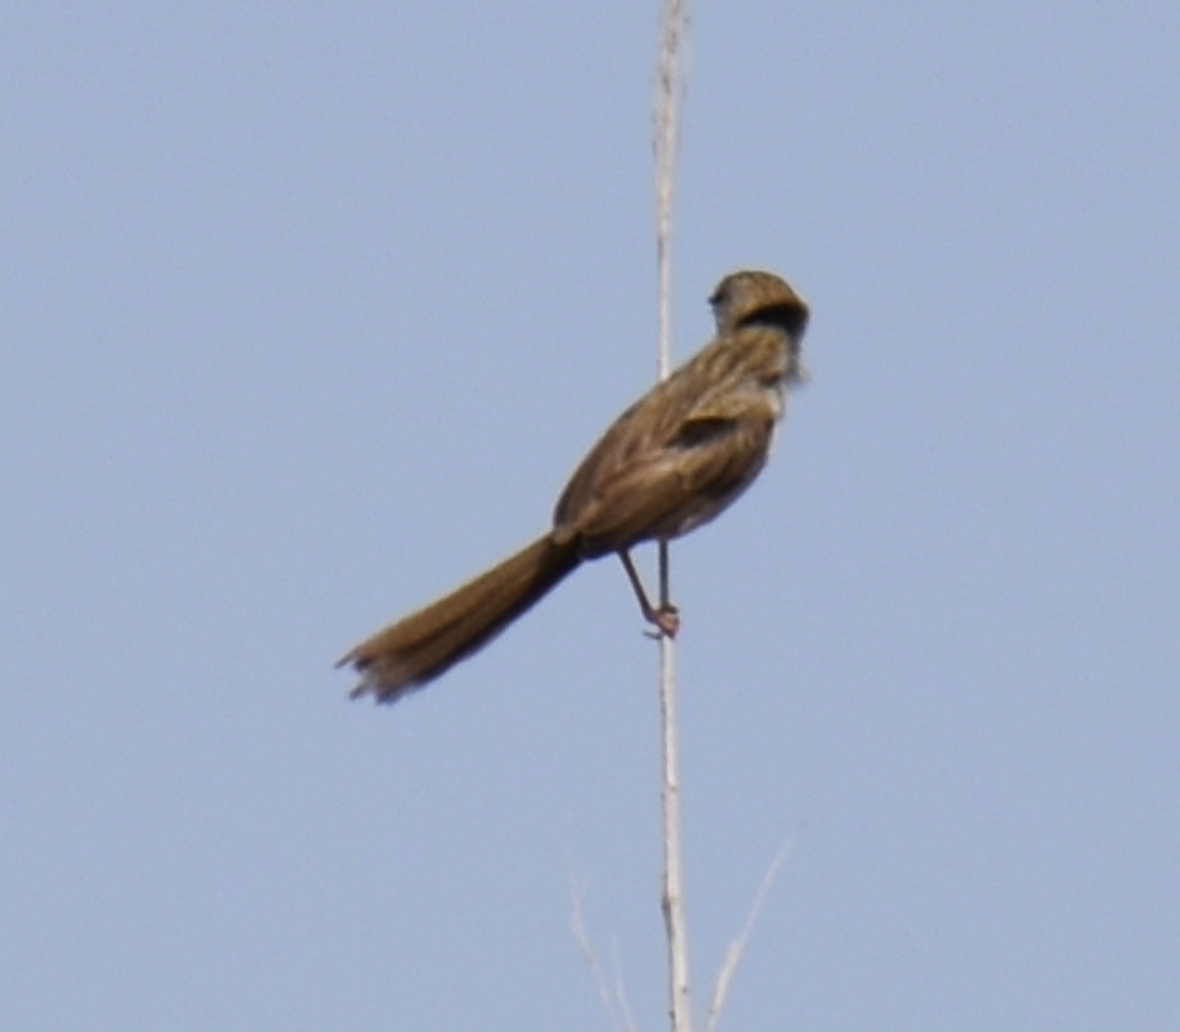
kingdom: Animalia
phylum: Chordata
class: Aves
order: Passeriformes
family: Cisticolidae
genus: Prinia
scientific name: Prinia lepida
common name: Delicate prinia
